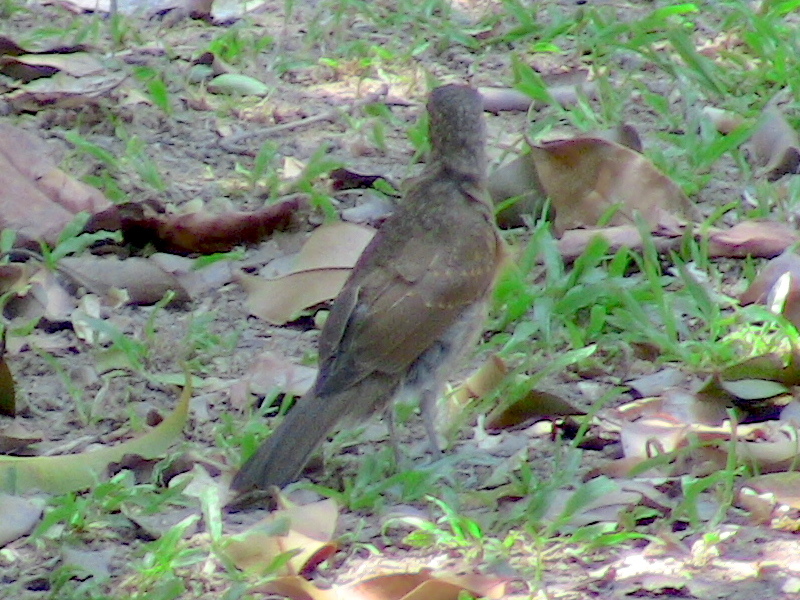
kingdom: Animalia
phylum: Chordata
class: Aves
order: Passeriformes
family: Turdidae
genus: Turdus
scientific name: Turdus leucomelas
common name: Pale-breasted thrush
